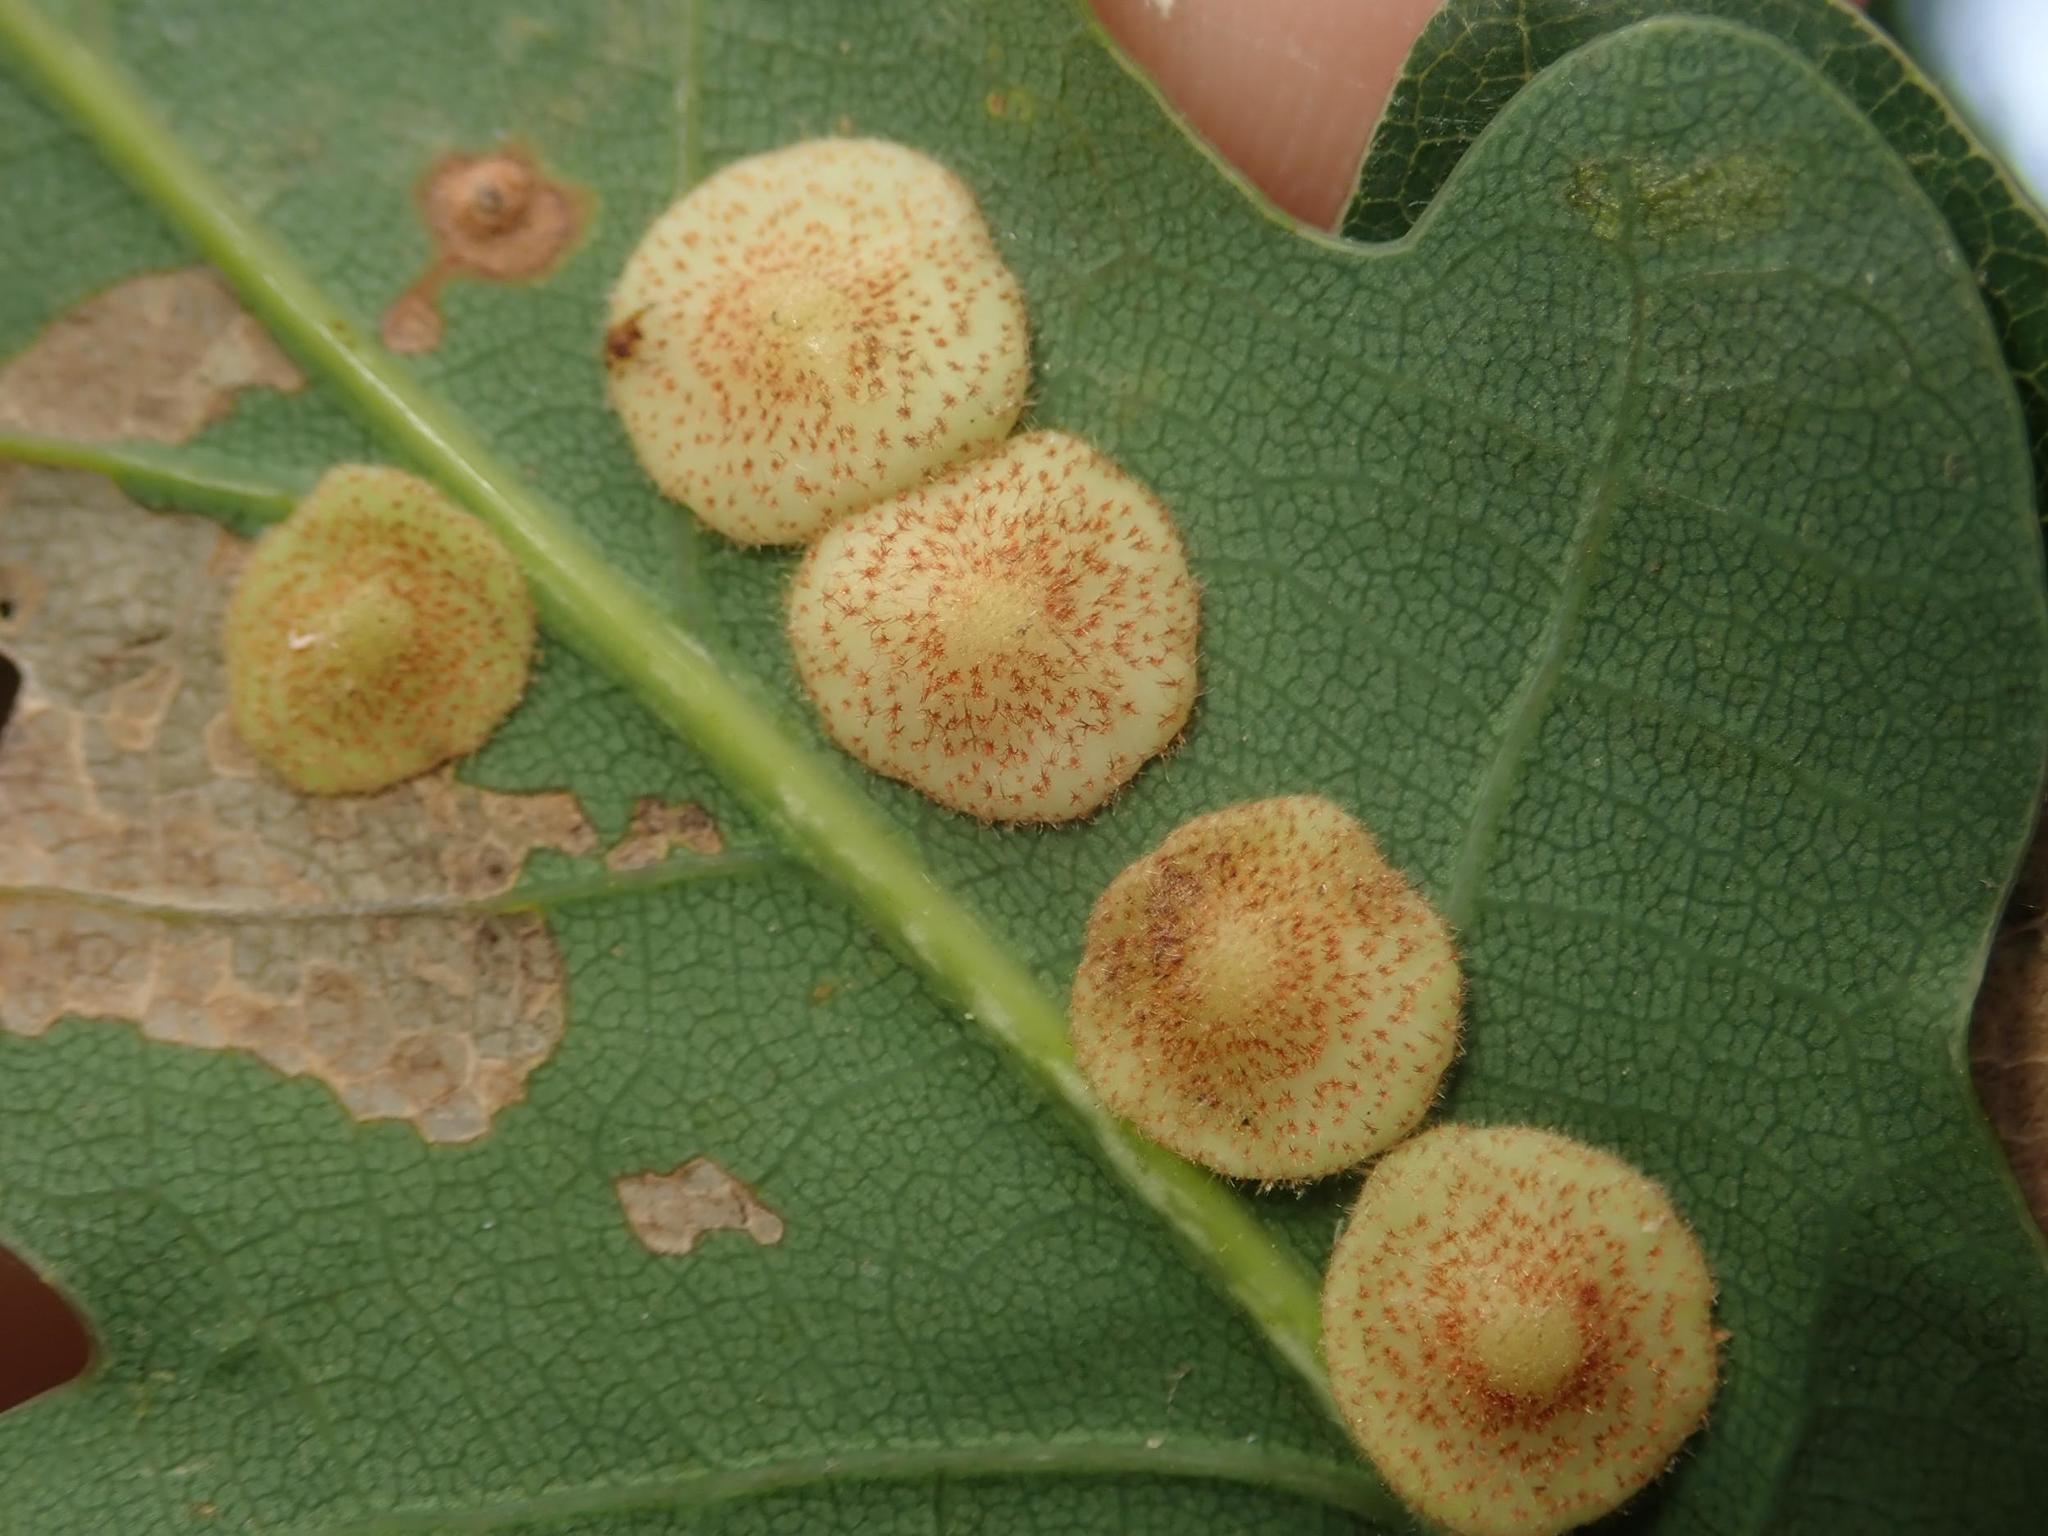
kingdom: Animalia
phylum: Arthropoda
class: Insecta
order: Hymenoptera
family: Cynipidae
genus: Neuroterus
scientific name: Neuroterus quercusbaccarum
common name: Common spangle gall
